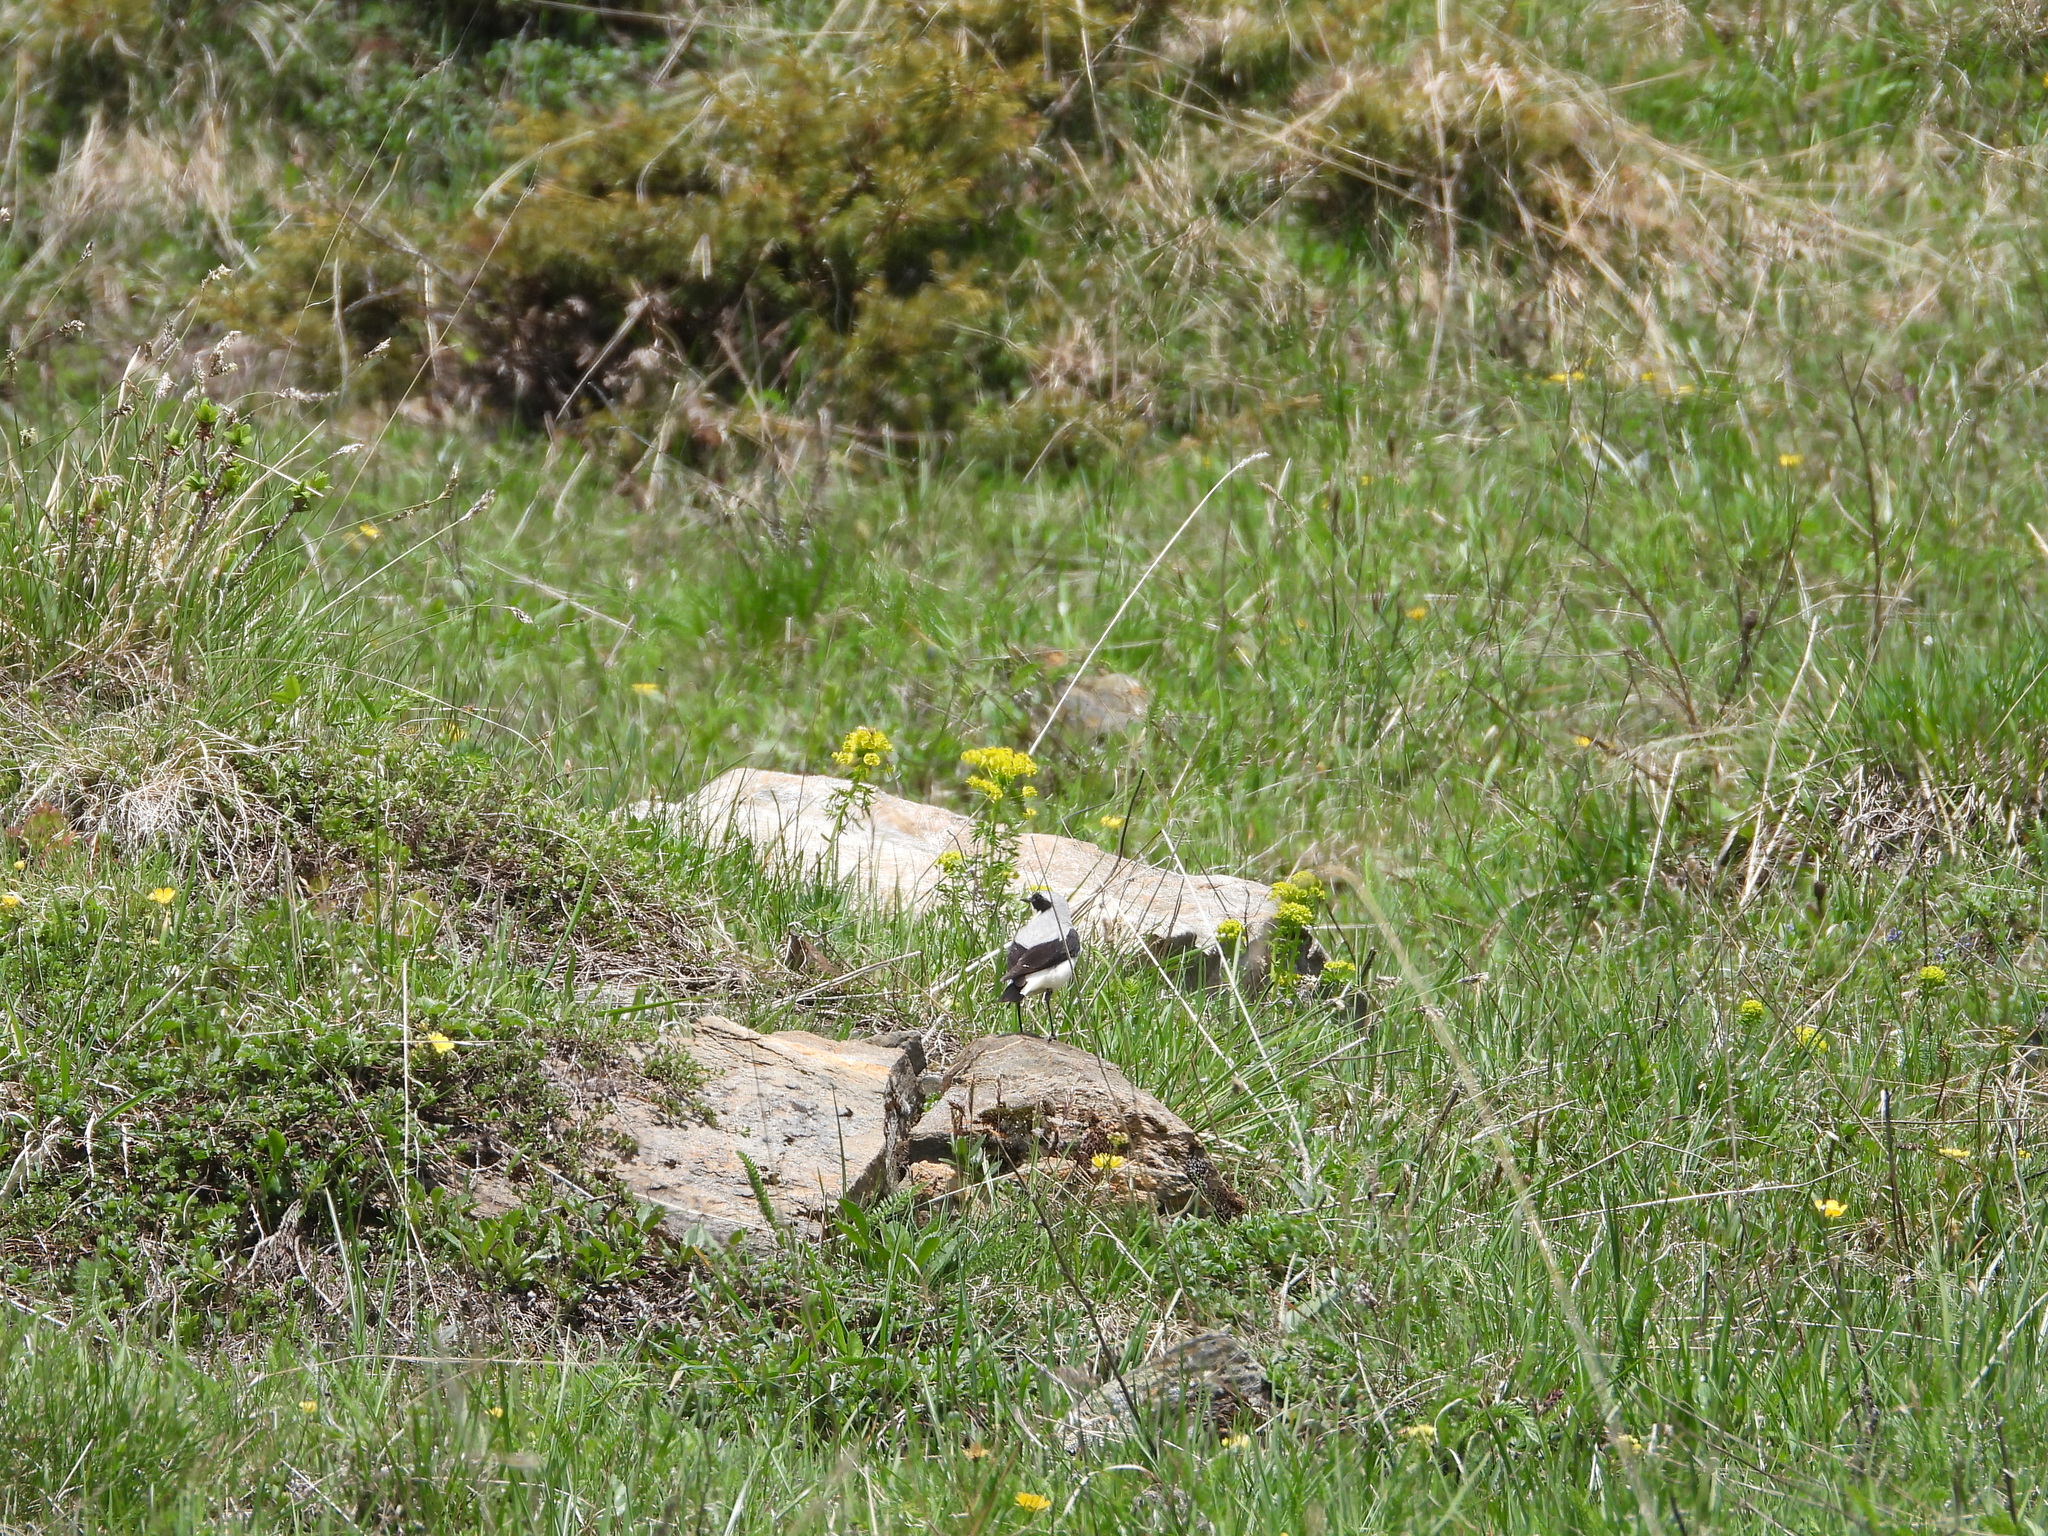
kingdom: Animalia
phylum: Chordata
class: Aves
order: Passeriformes
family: Muscicapidae
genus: Oenanthe
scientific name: Oenanthe oenanthe
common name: Northern wheatear
